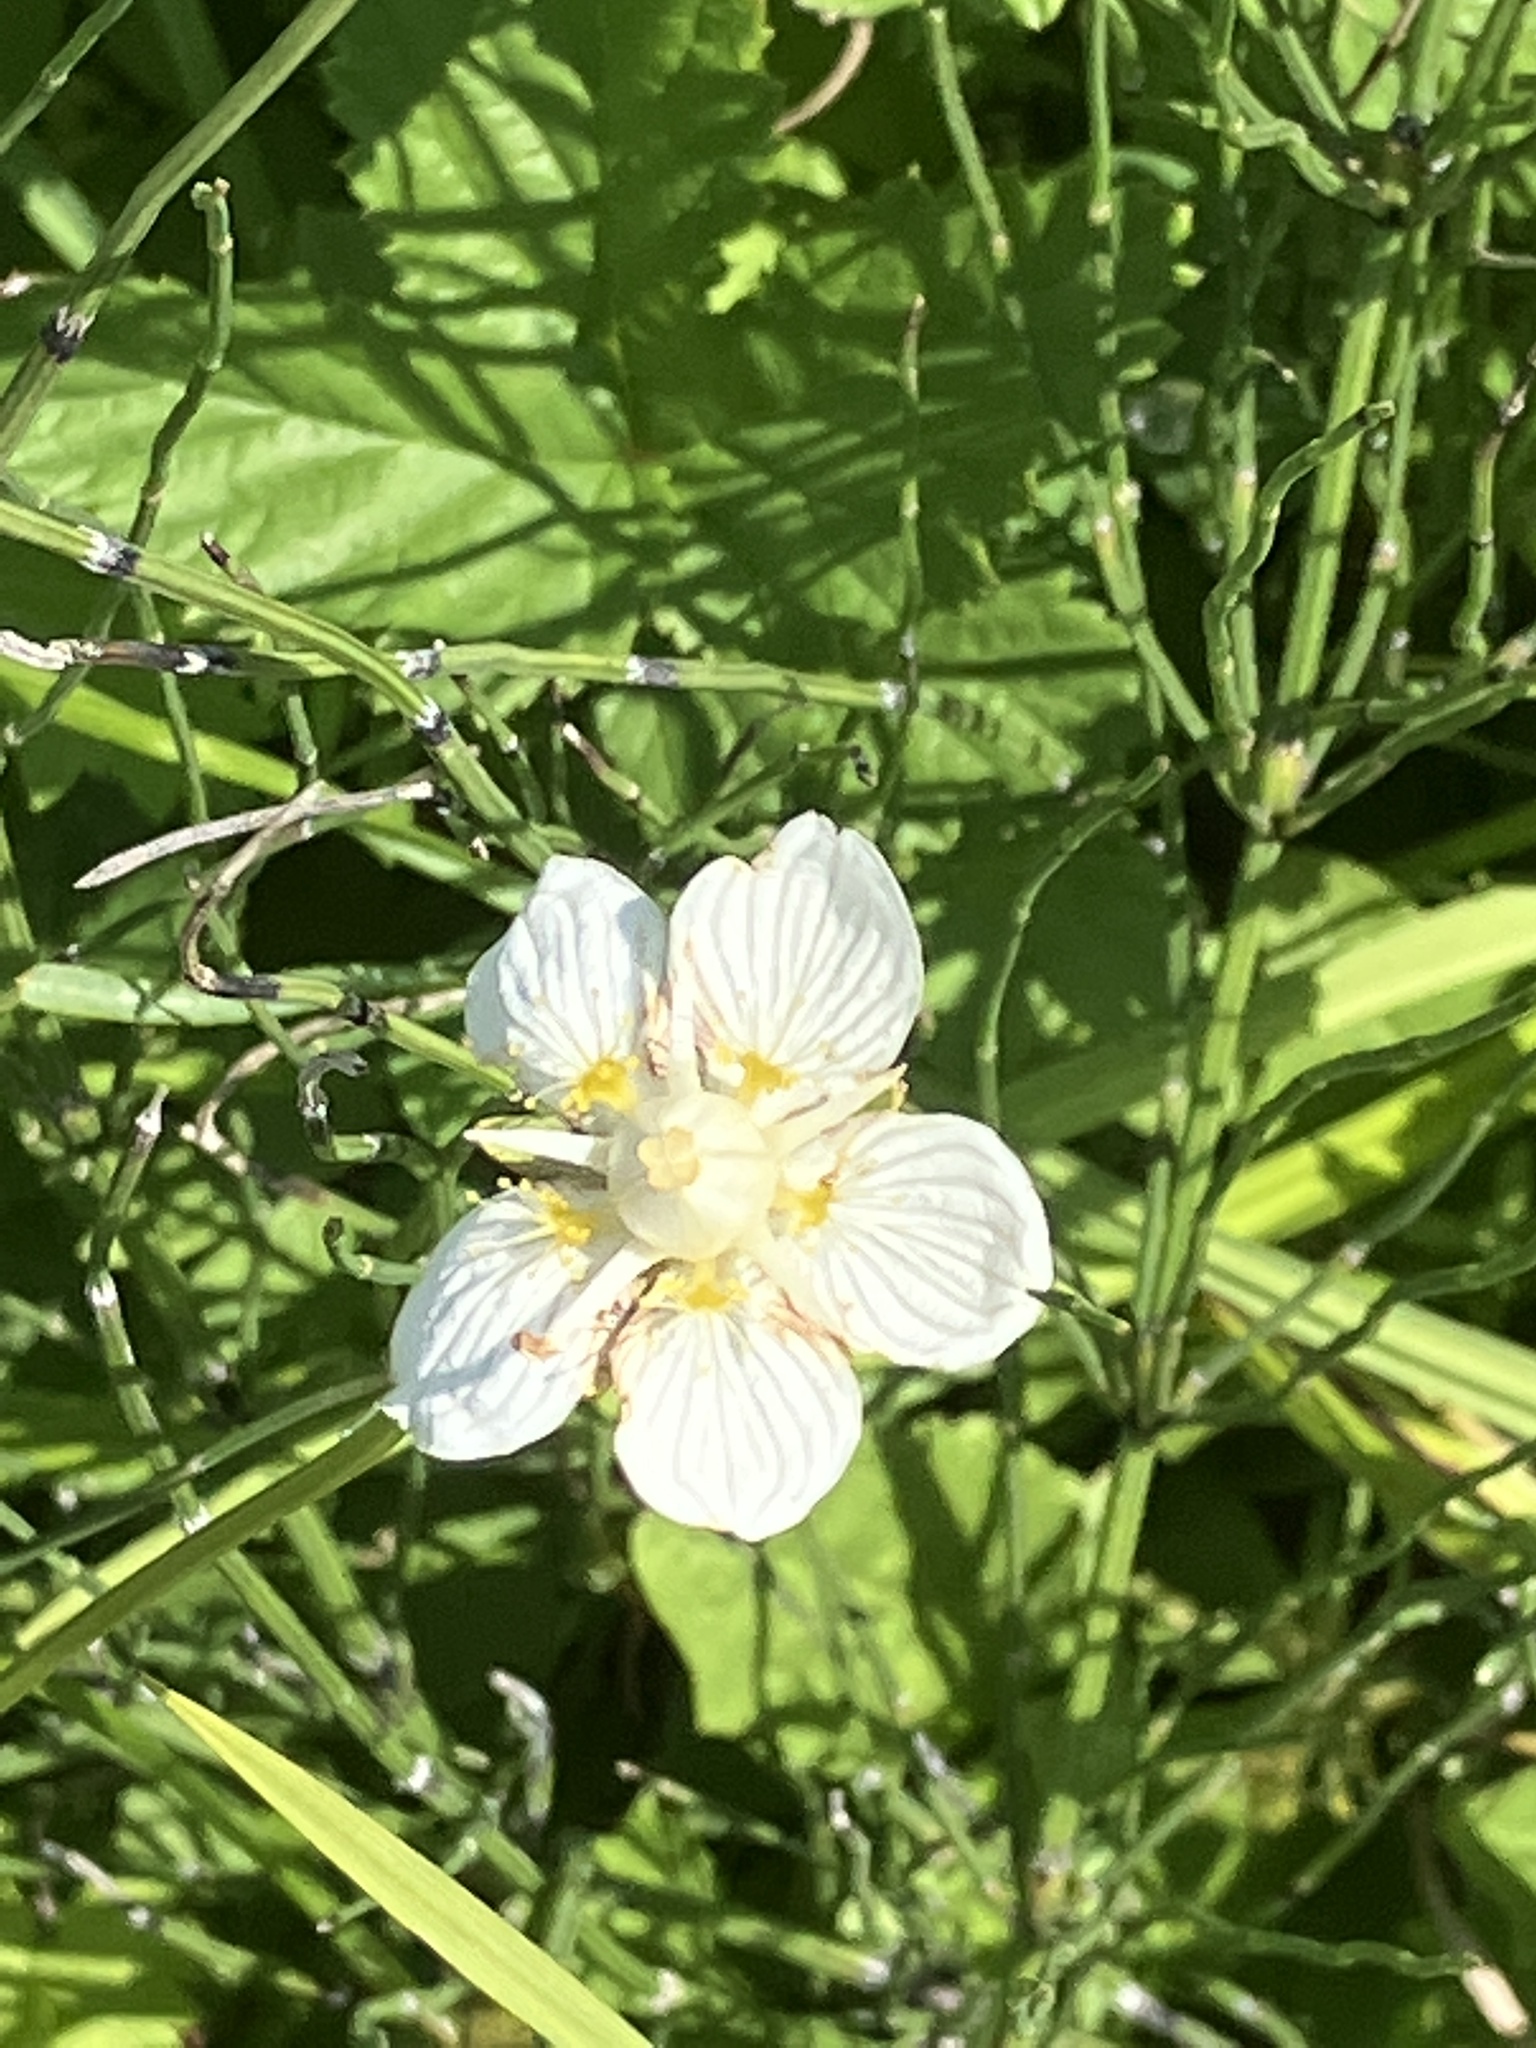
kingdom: Plantae
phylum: Tracheophyta
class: Magnoliopsida
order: Celastrales
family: Parnassiaceae
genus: Parnassia
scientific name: Parnassia palustris
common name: Grass-of-parnassus
